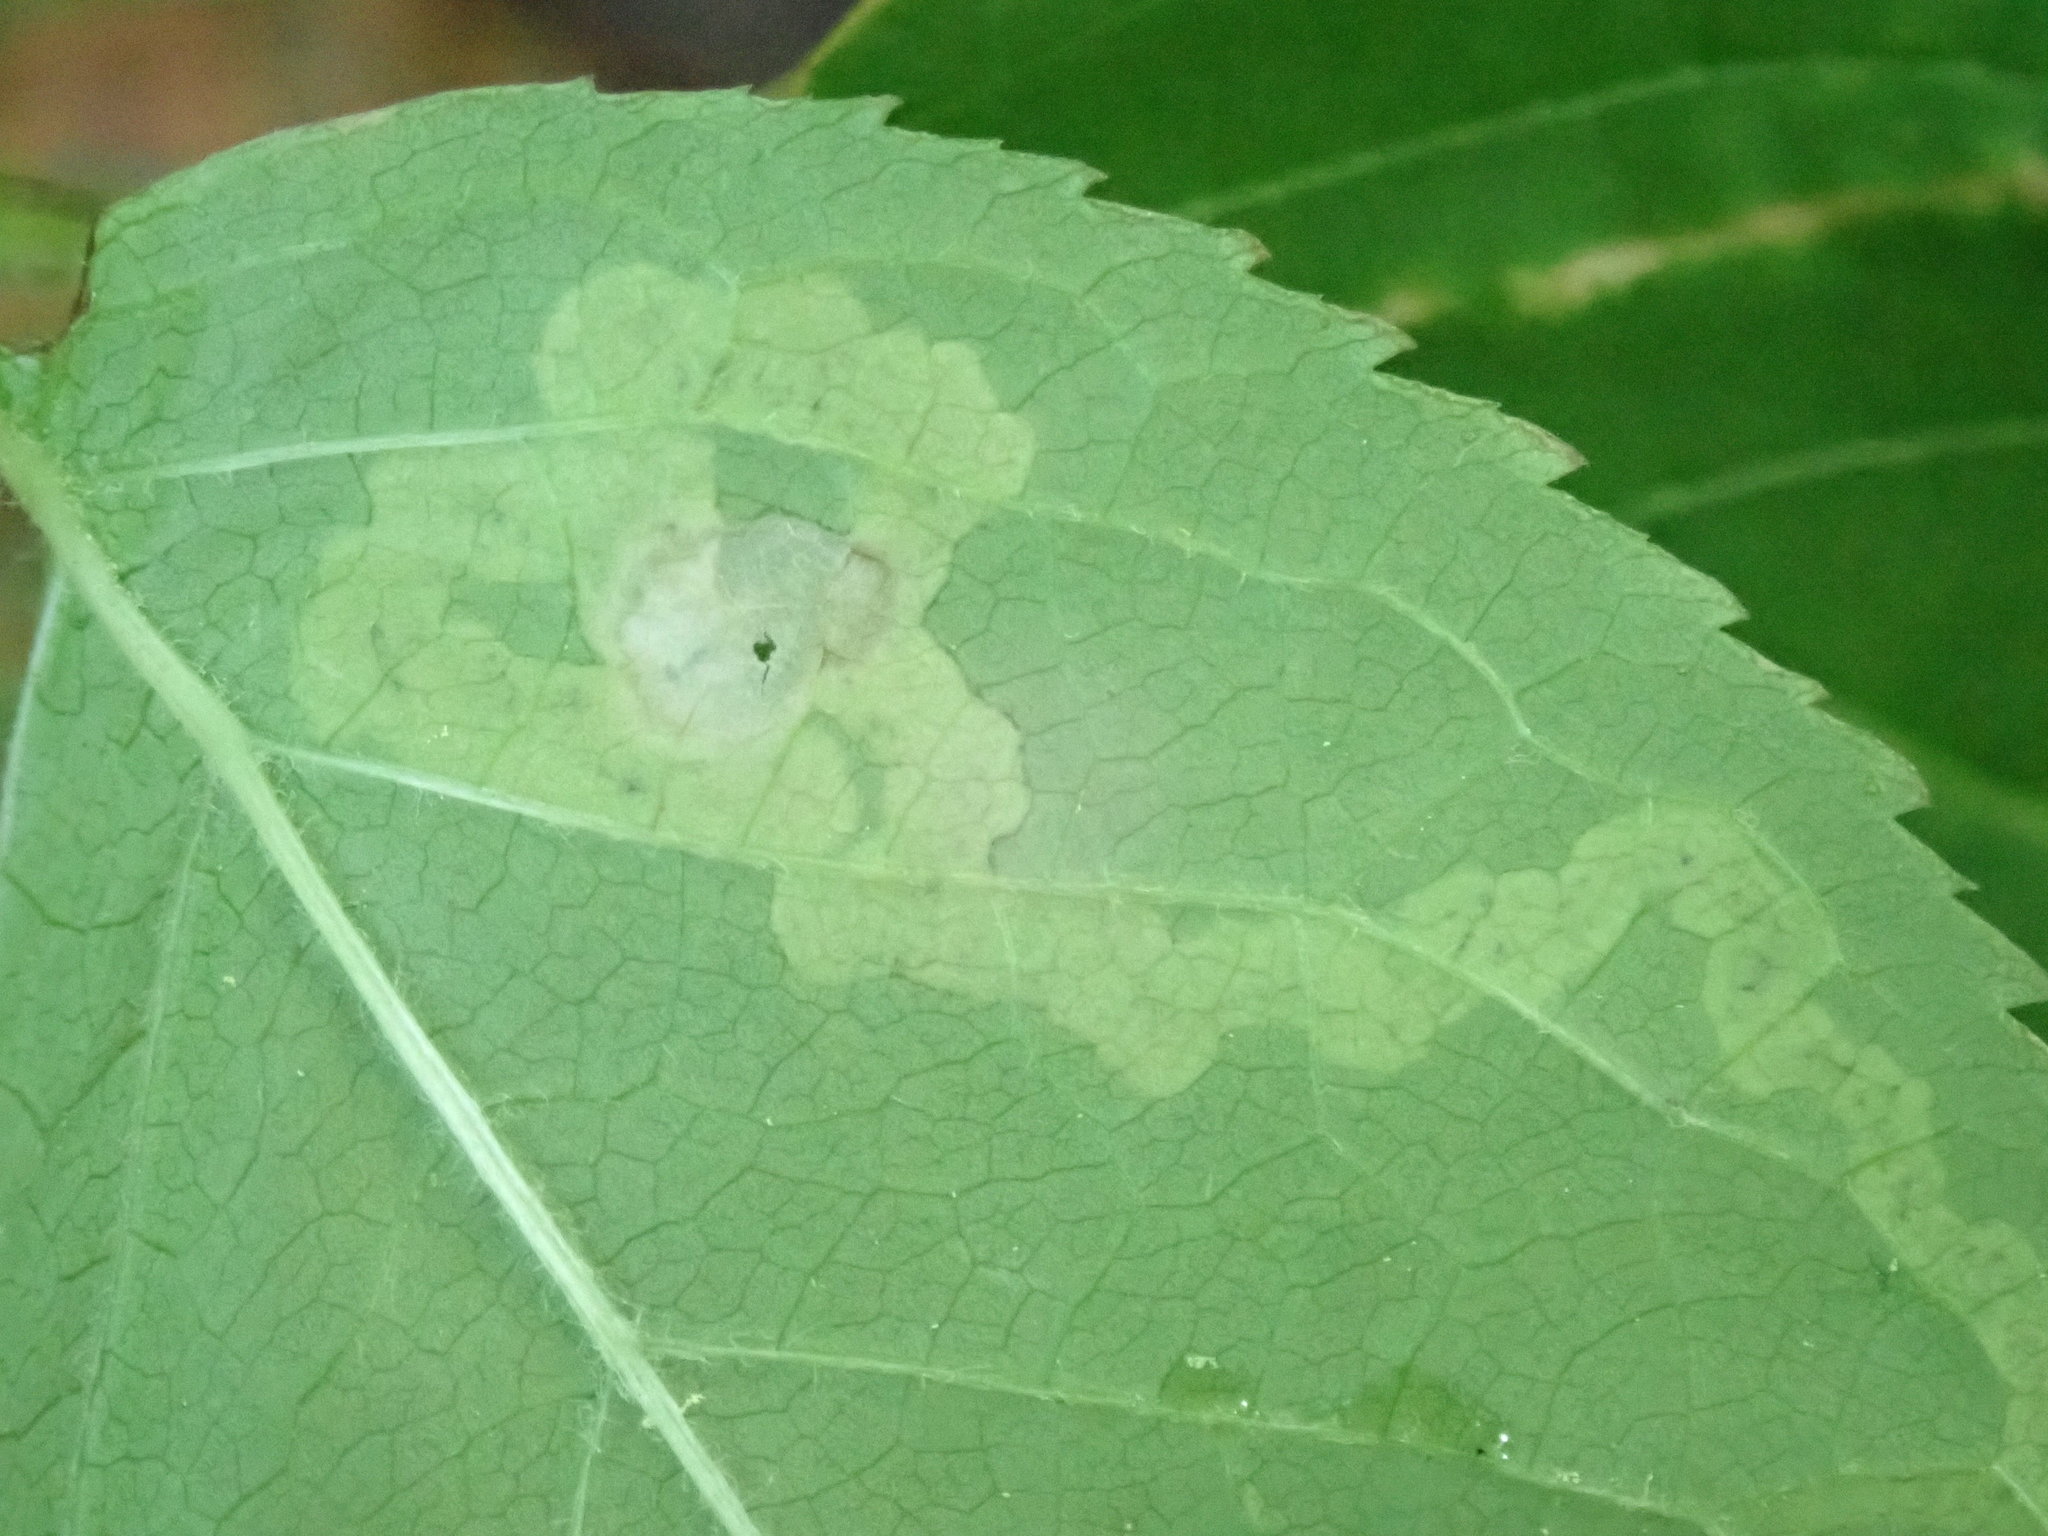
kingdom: Animalia
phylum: Arthropoda
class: Insecta
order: Diptera
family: Agromyzidae
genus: Phytomyza
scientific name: Phytomyza aralivora
